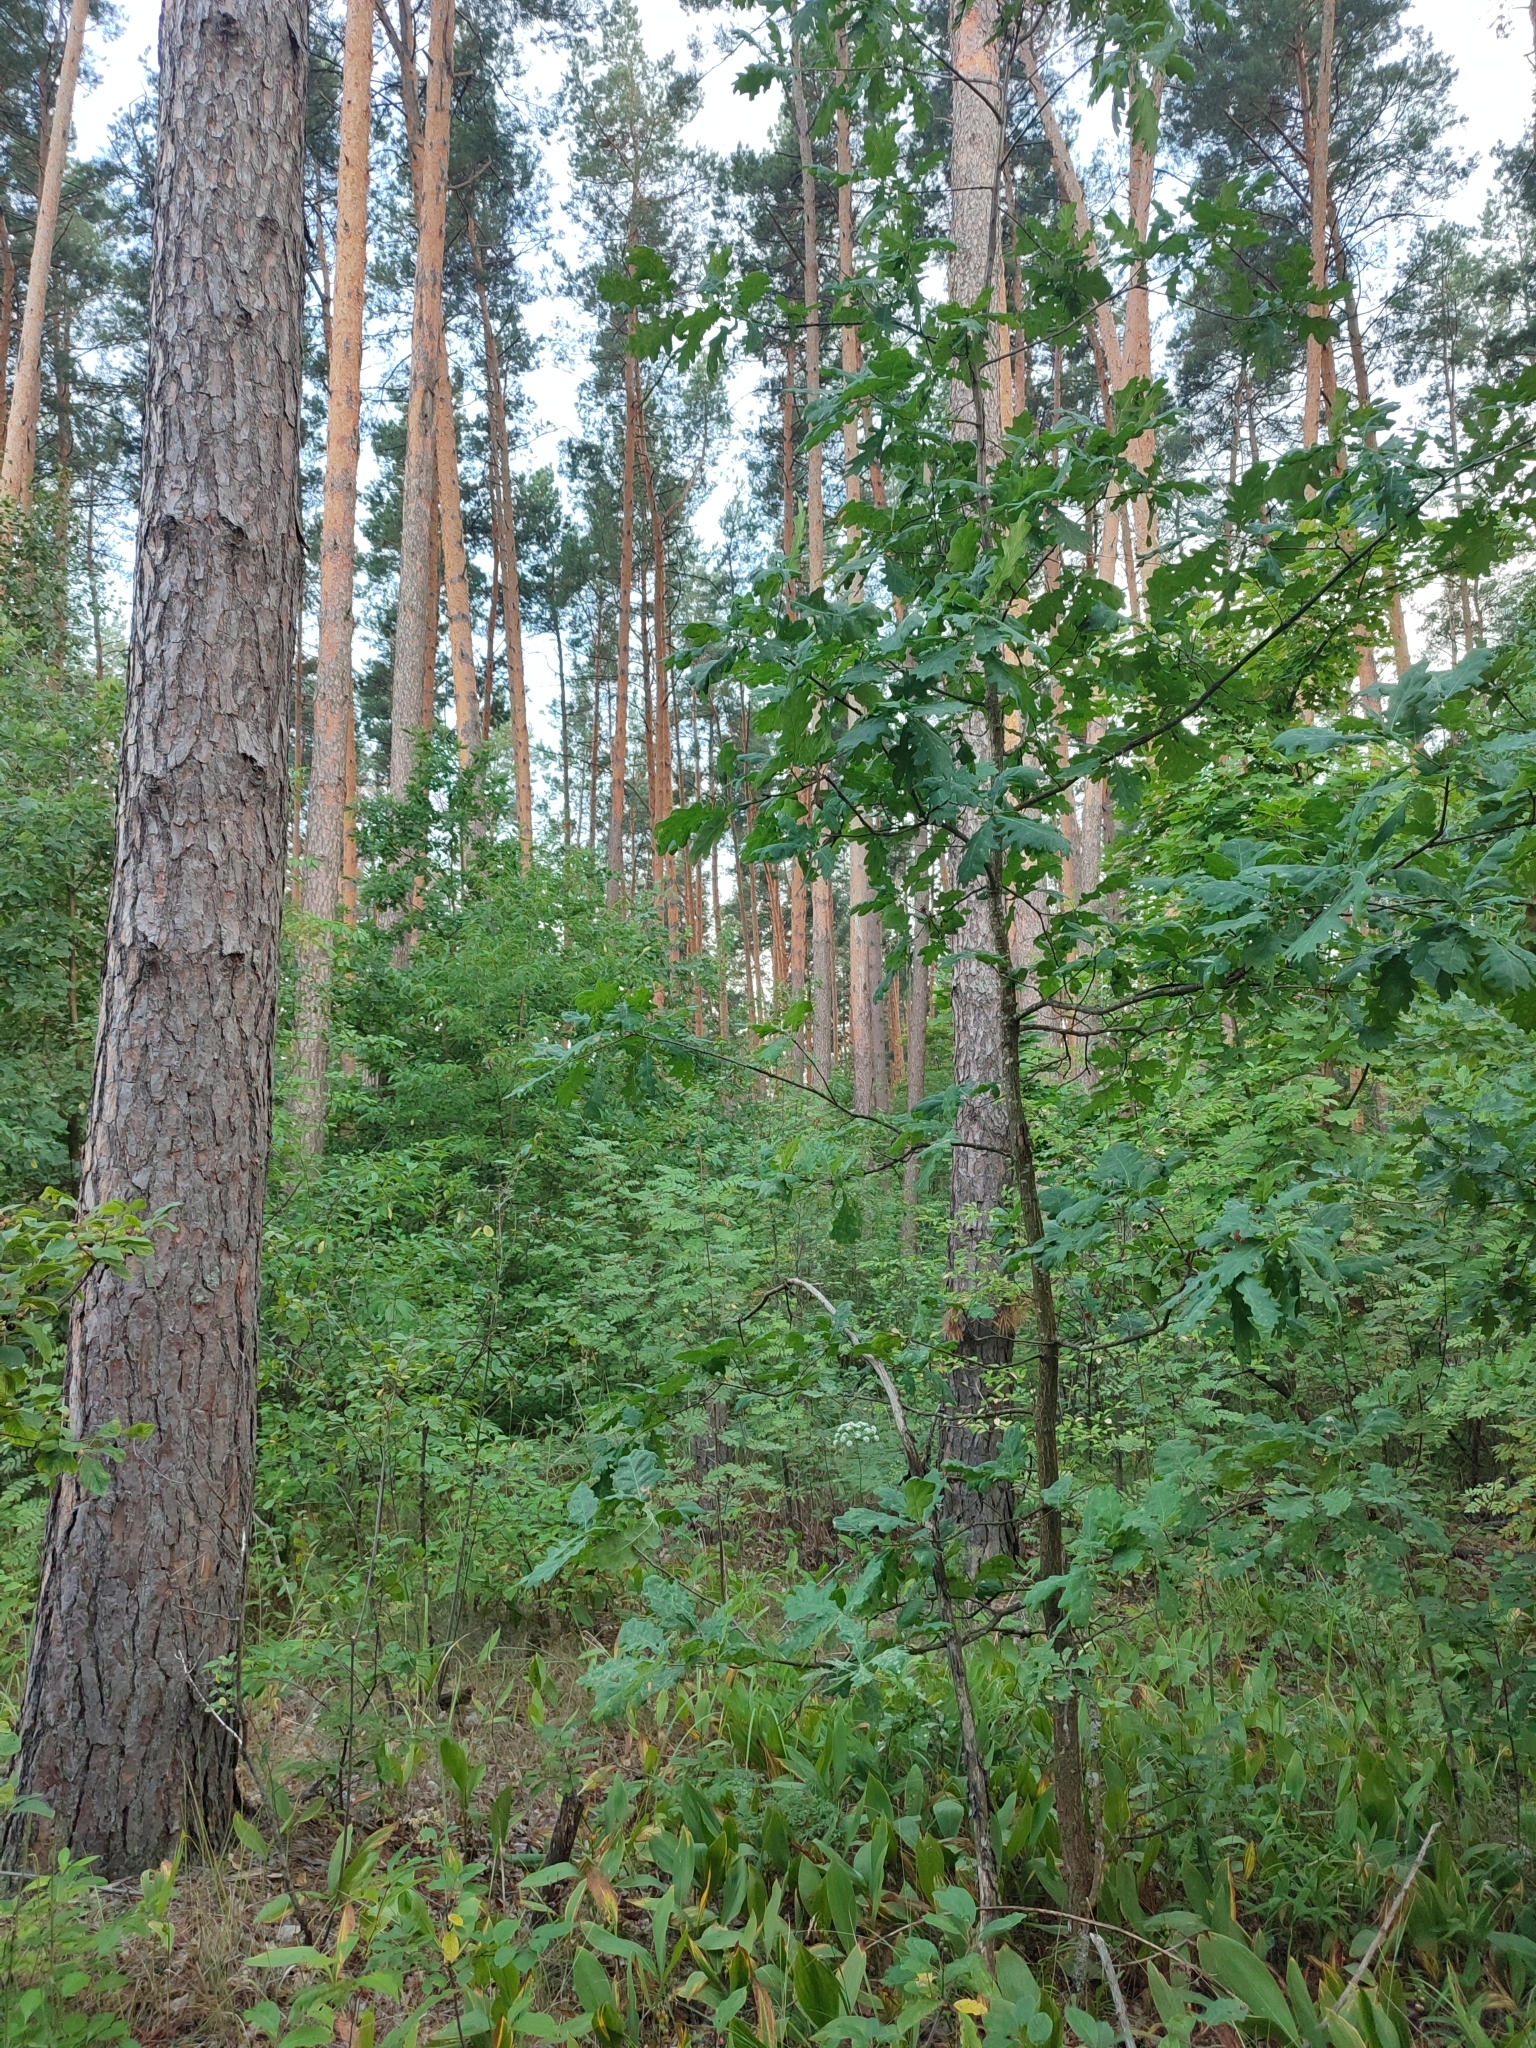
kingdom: Plantae
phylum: Tracheophyta
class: Magnoliopsida
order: Fagales
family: Fagaceae
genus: Quercus
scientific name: Quercus robur
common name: Pedunculate oak
